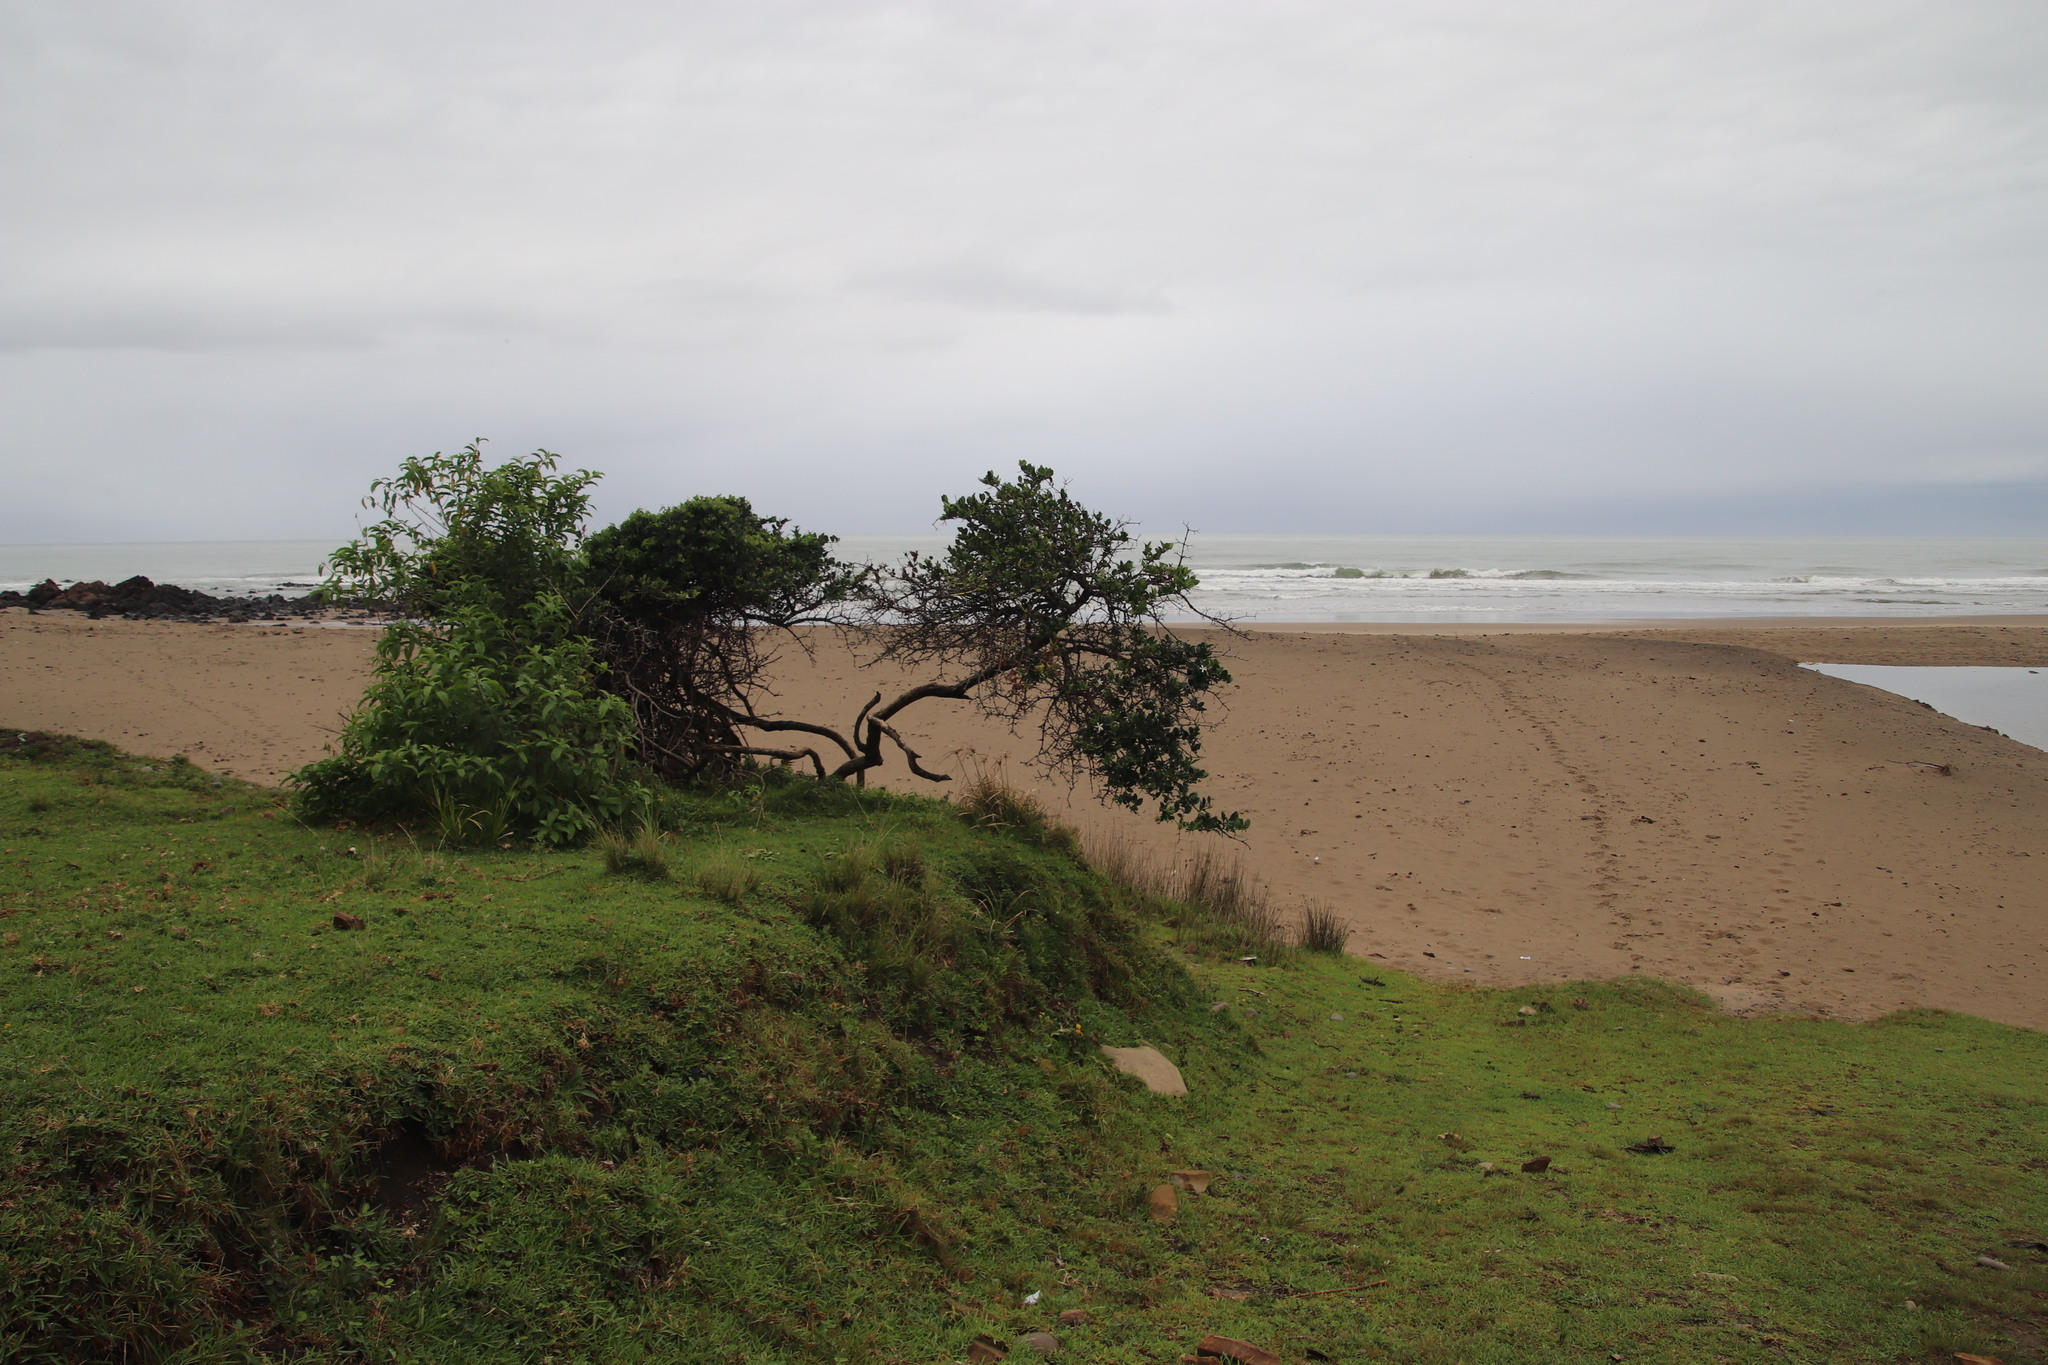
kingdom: Plantae
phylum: Tracheophyta
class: Magnoliopsida
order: Gentianales
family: Apocynaceae
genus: Carissa
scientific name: Carissa macrocarpa
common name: Natal plum
